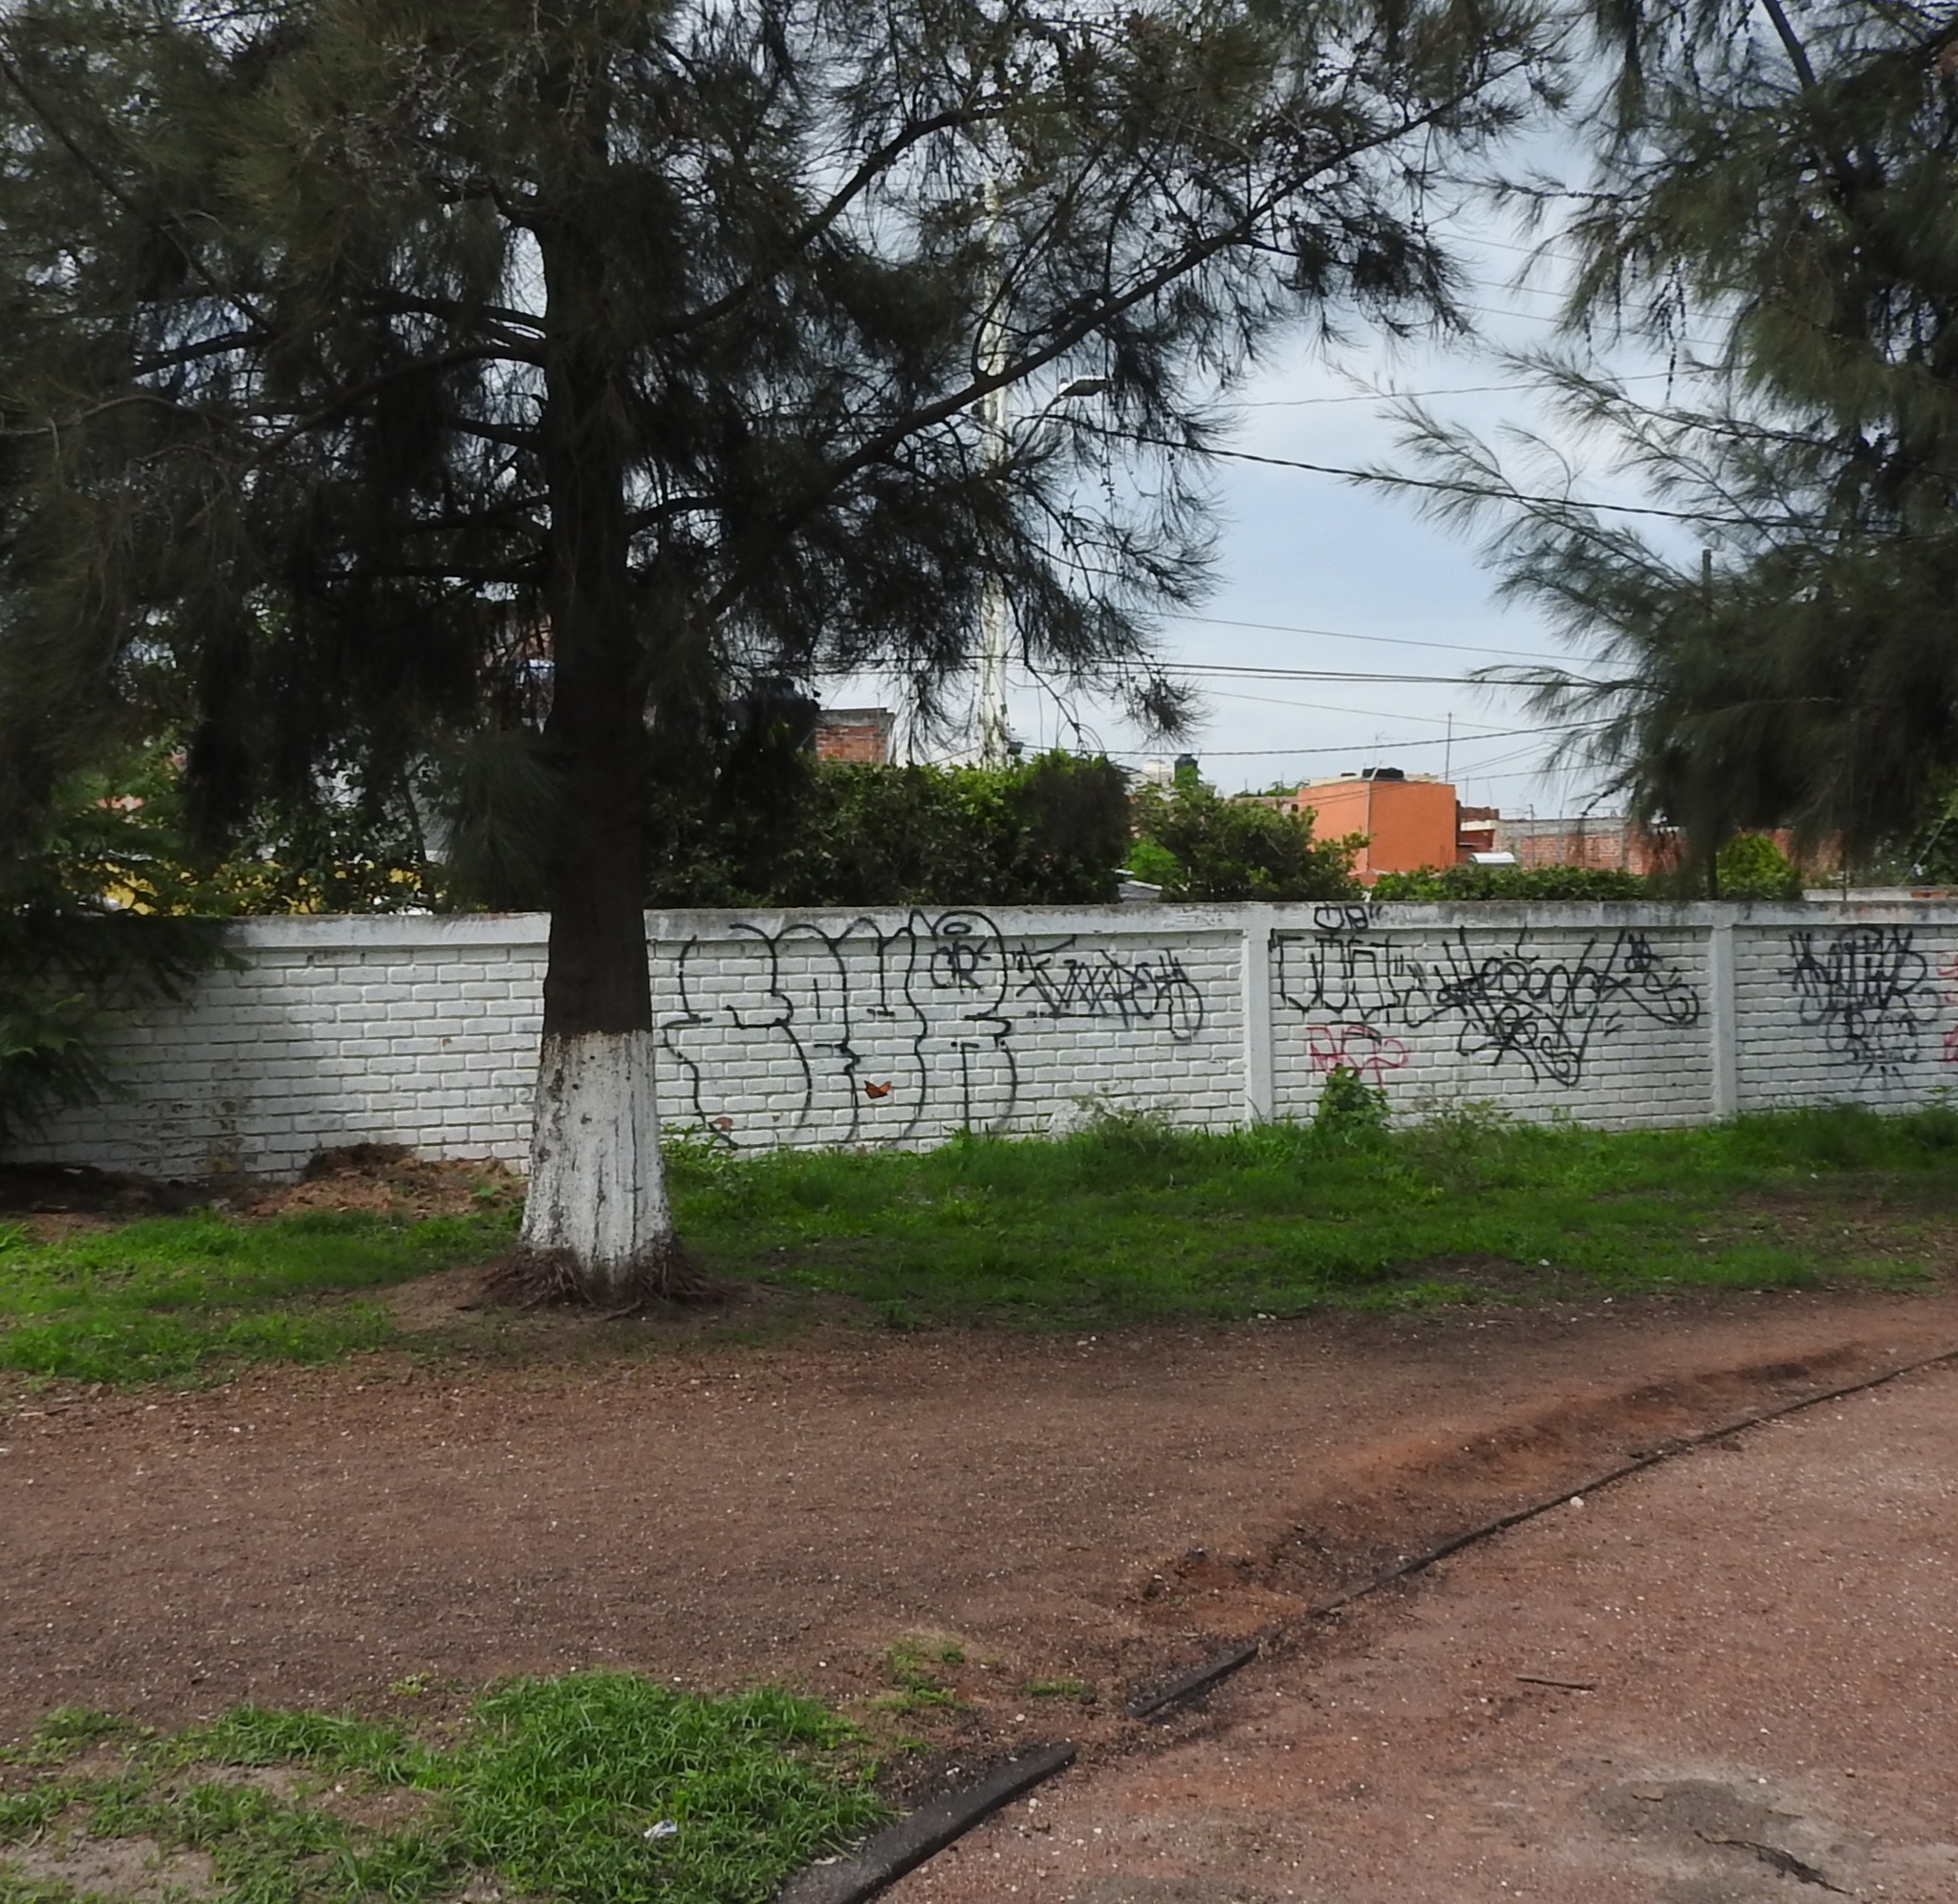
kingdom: Animalia
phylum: Arthropoda
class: Insecta
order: Lepidoptera
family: Nymphalidae
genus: Danaus
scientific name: Danaus plexippus
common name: Monarch
